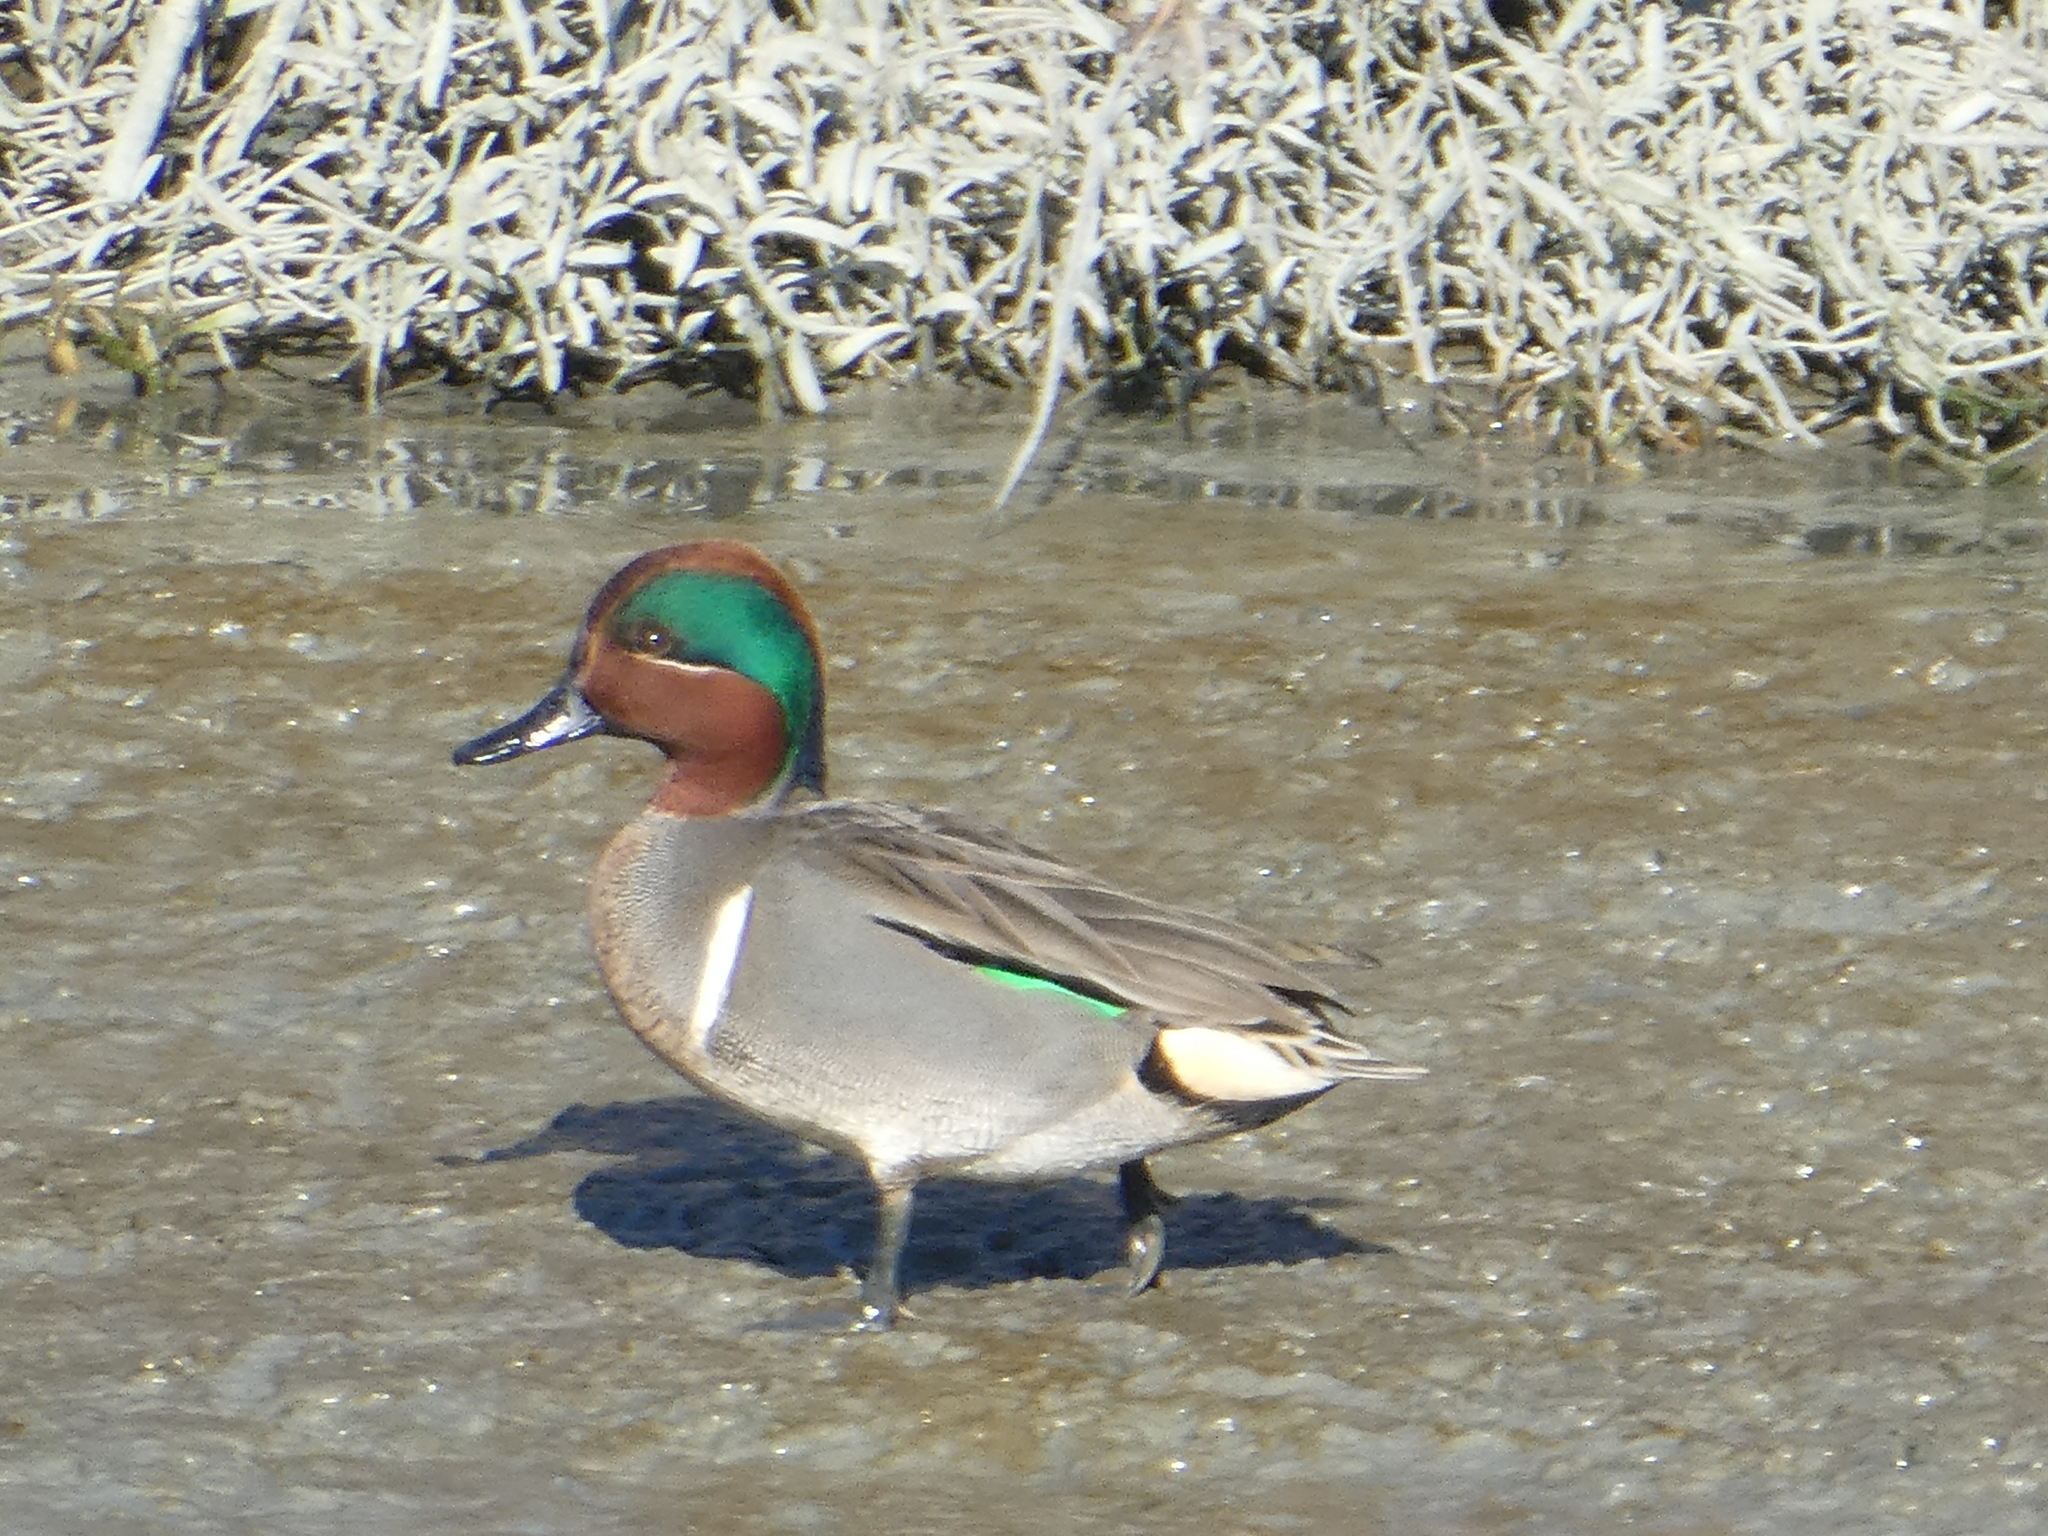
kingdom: Animalia
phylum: Chordata
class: Aves
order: Anseriformes
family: Anatidae
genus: Anas
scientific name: Anas crecca
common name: Eurasian teal
